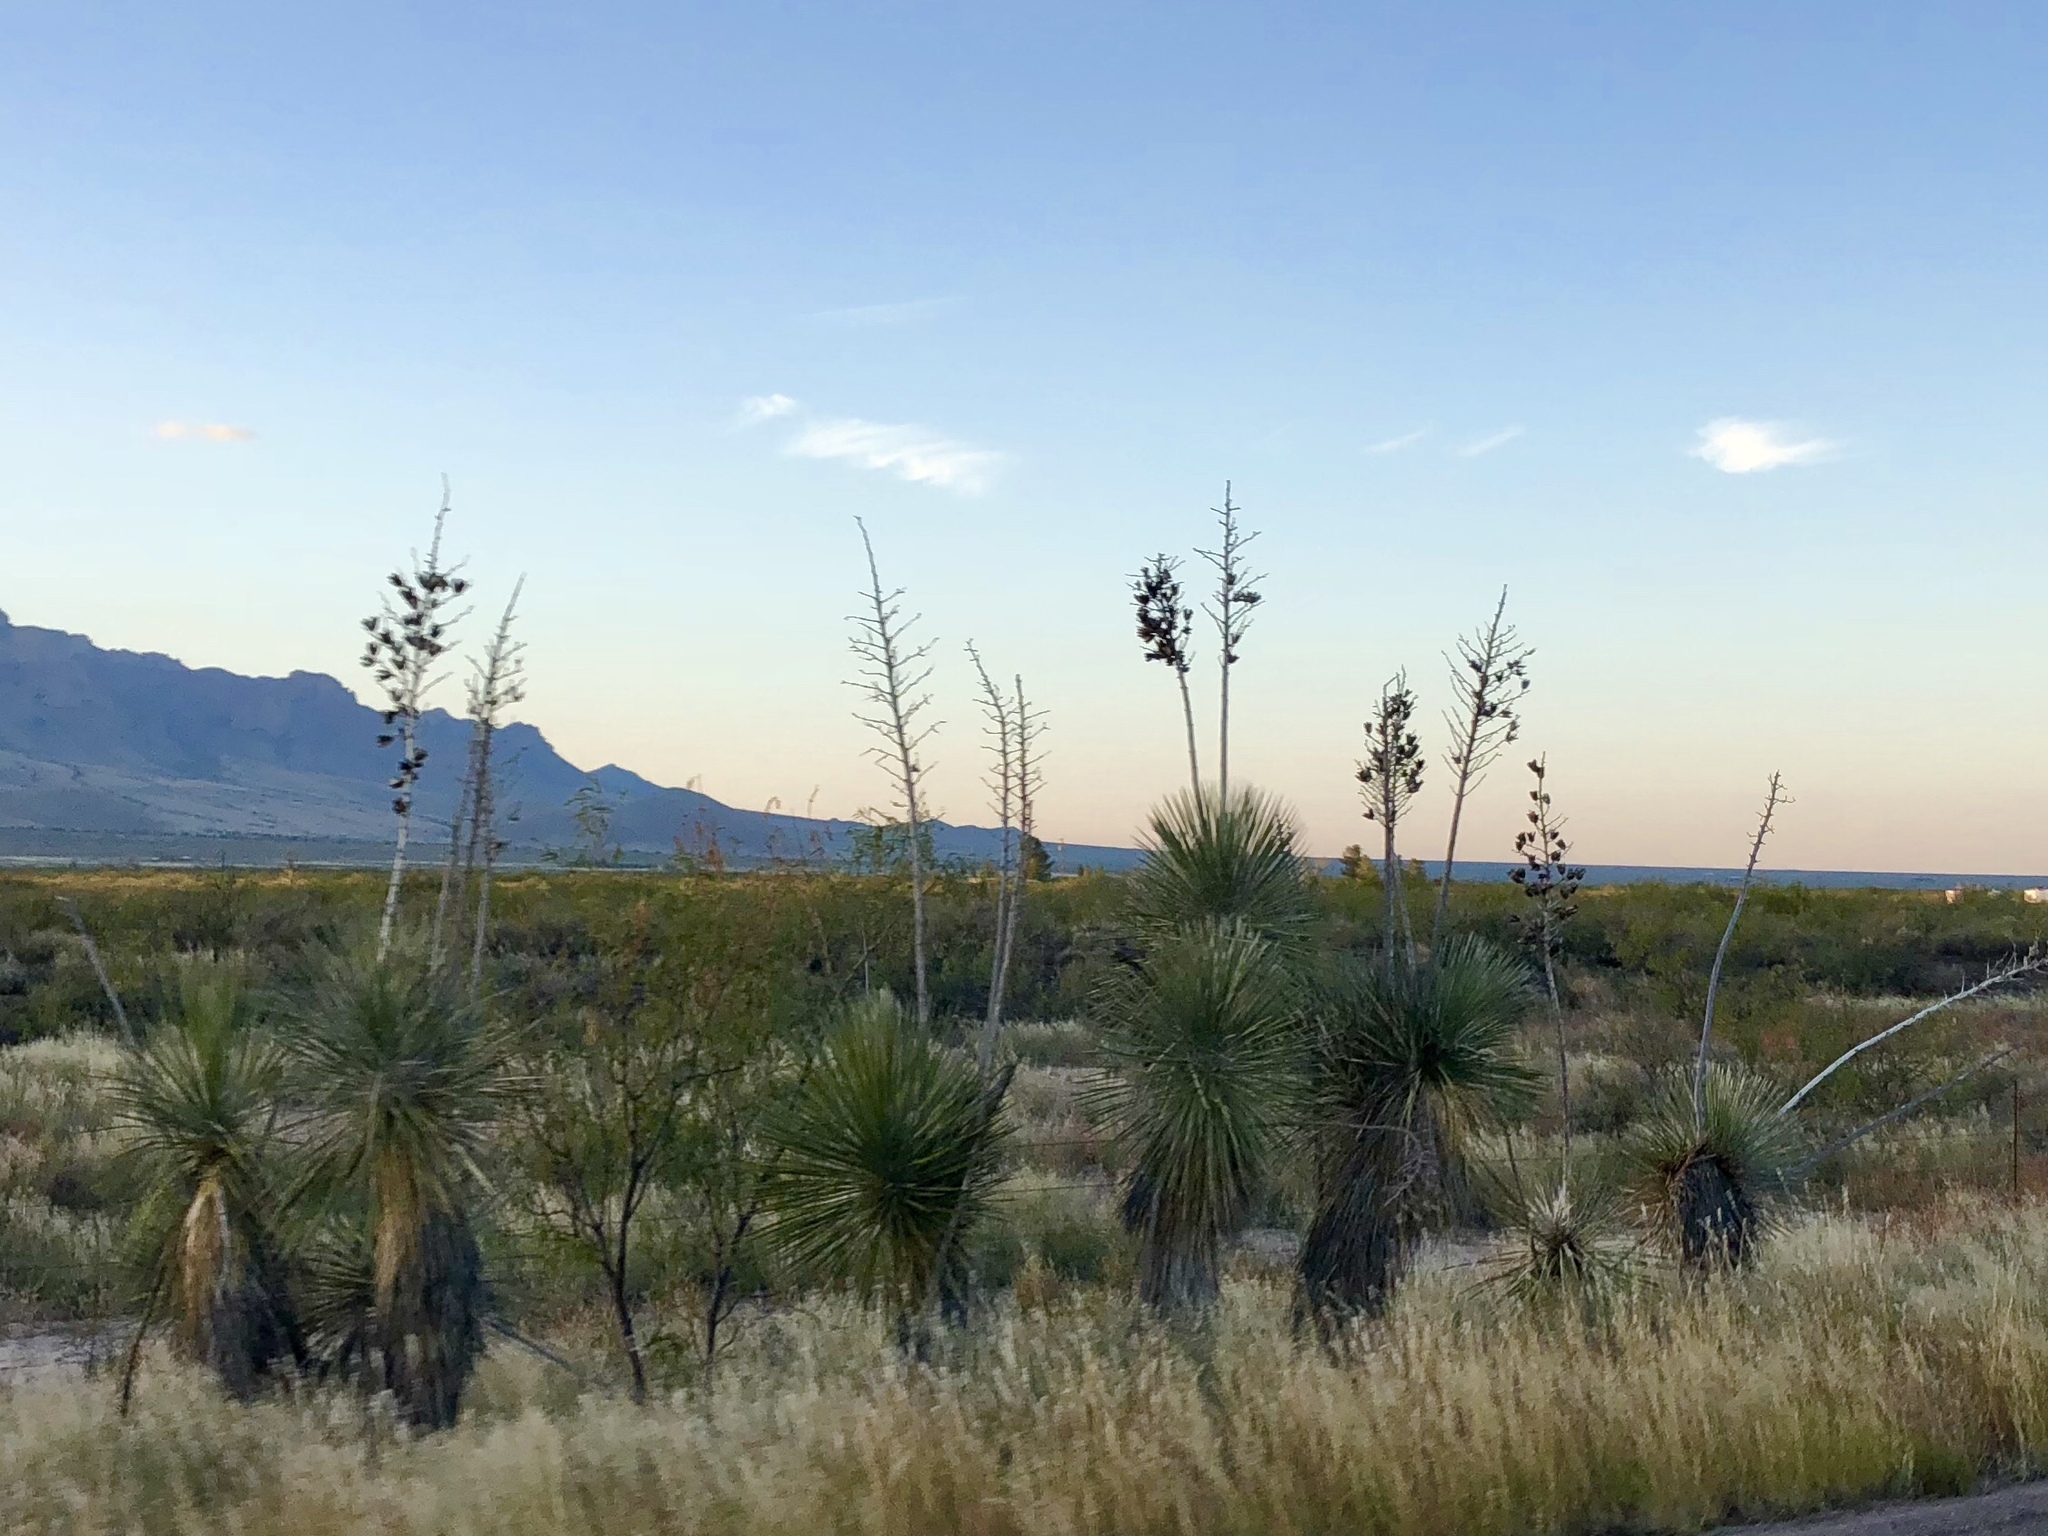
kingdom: Plantae
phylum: Tracheophyta
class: Liliopsida
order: Asparagales
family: Asparagaceae
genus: Yucca
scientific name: Yucca elata
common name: Palmella
